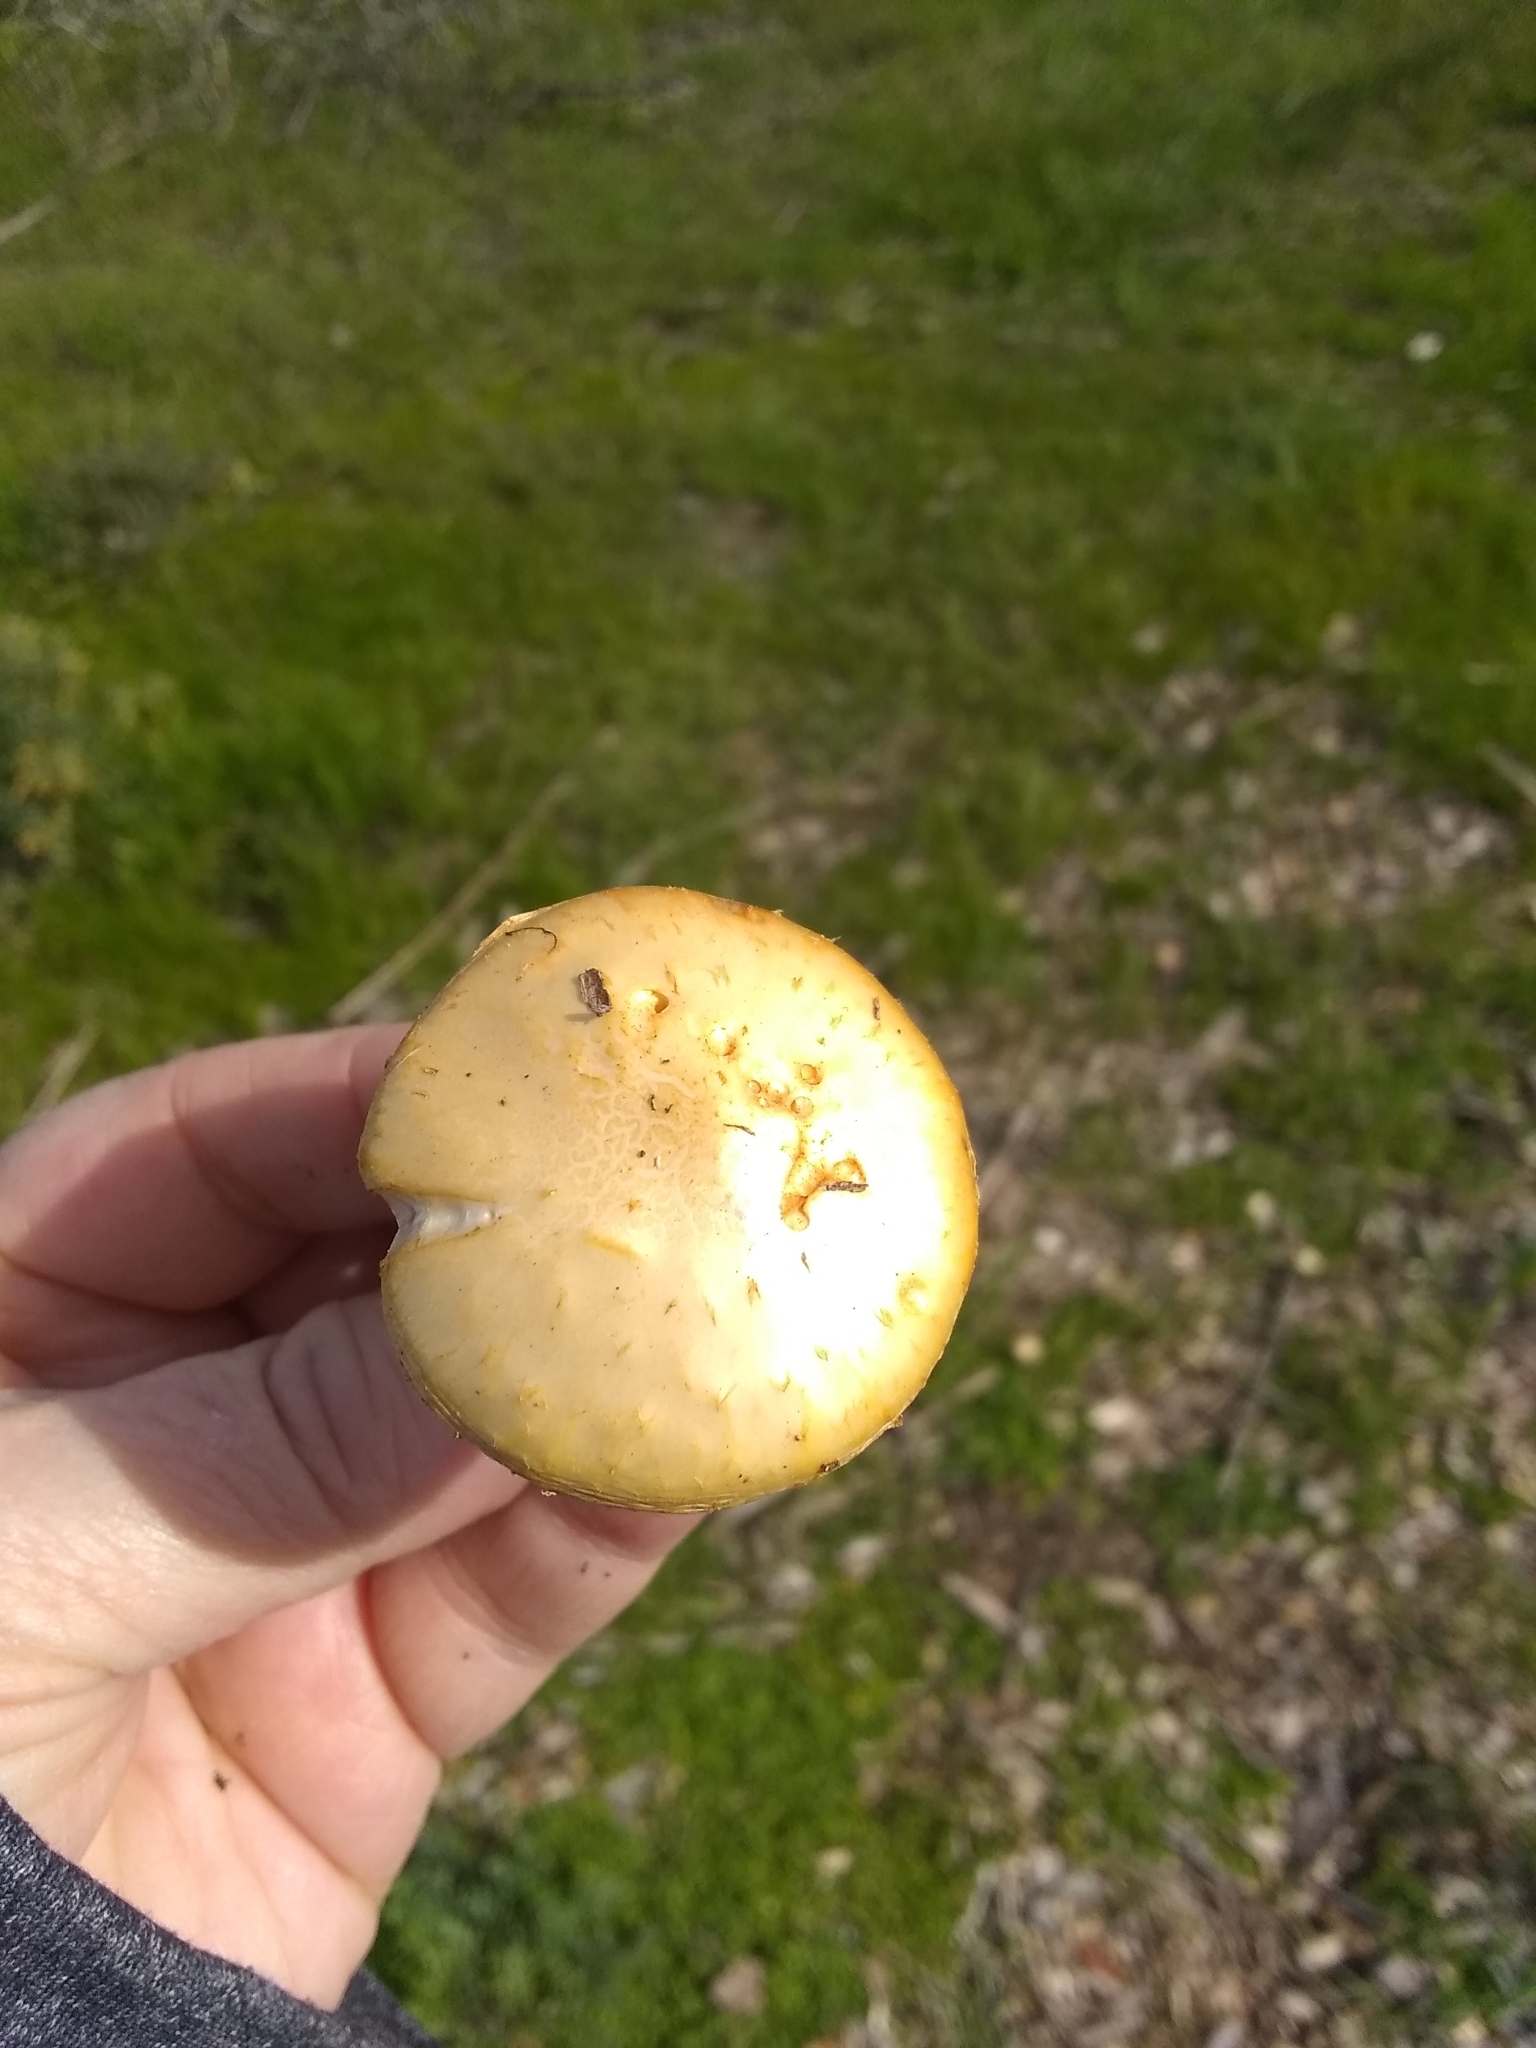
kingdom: Fungi
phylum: Basidiomycota
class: Agaricomycetes
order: Agaricales
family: Strophariaceae
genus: Leratiomyces
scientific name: Leratiomyces percevalii
